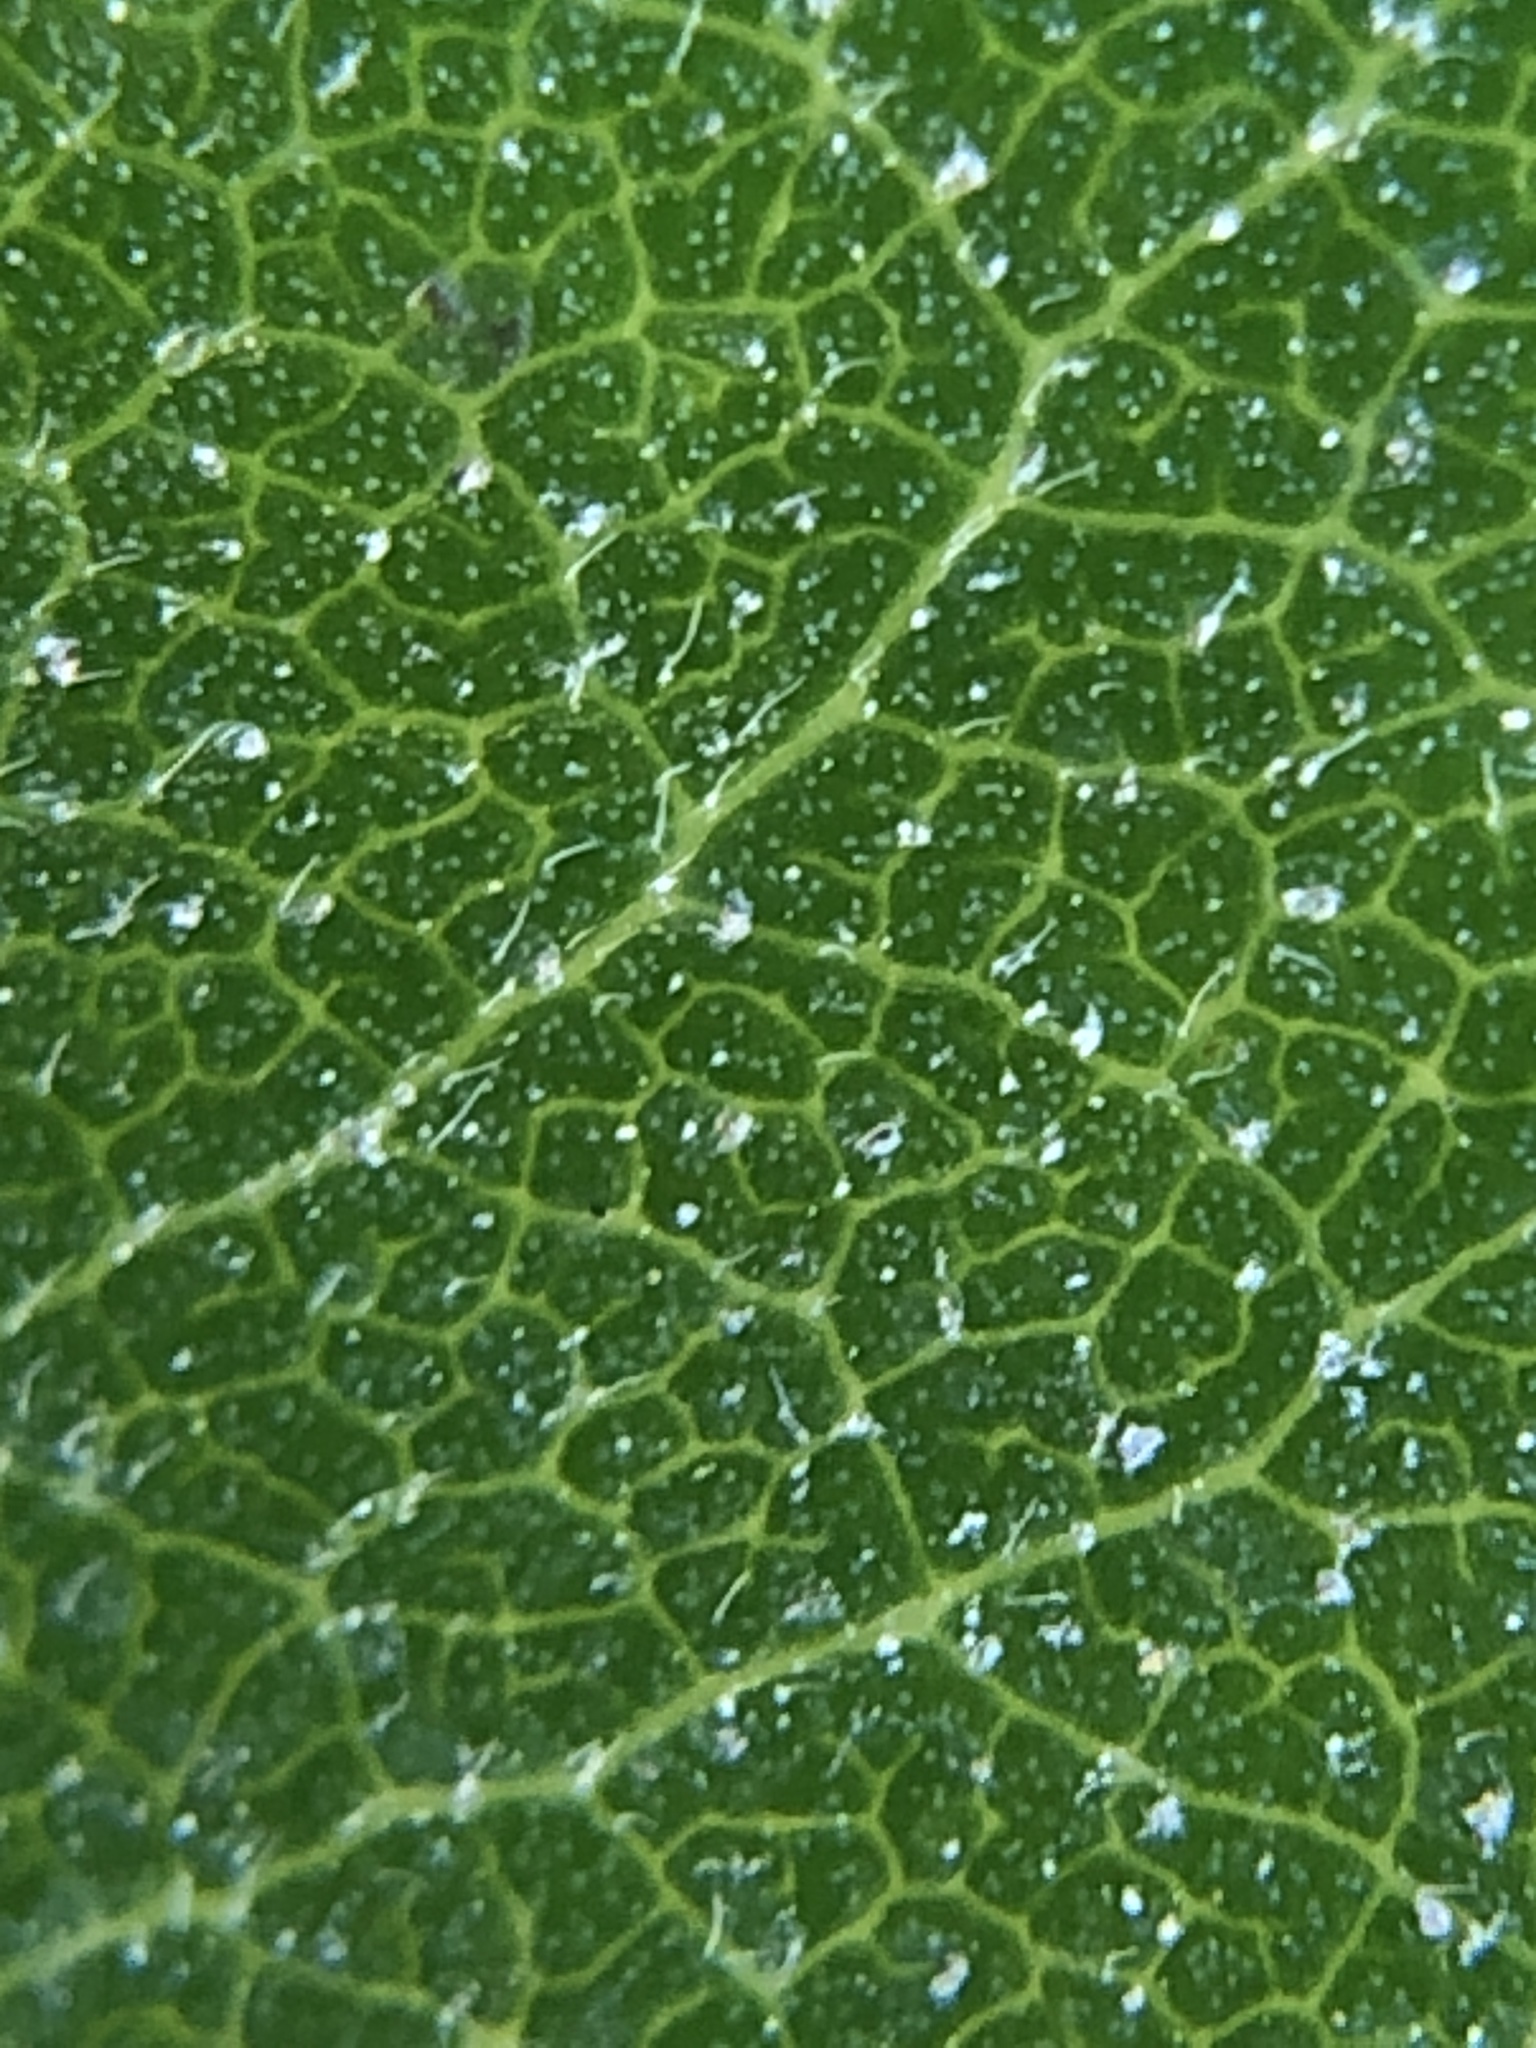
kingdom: Plantae
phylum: Tracheophyta
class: Magnoliopsida
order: Ericales
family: Ericaceae
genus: Arctostaphylos
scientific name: Arctostaphylos glandulosa
